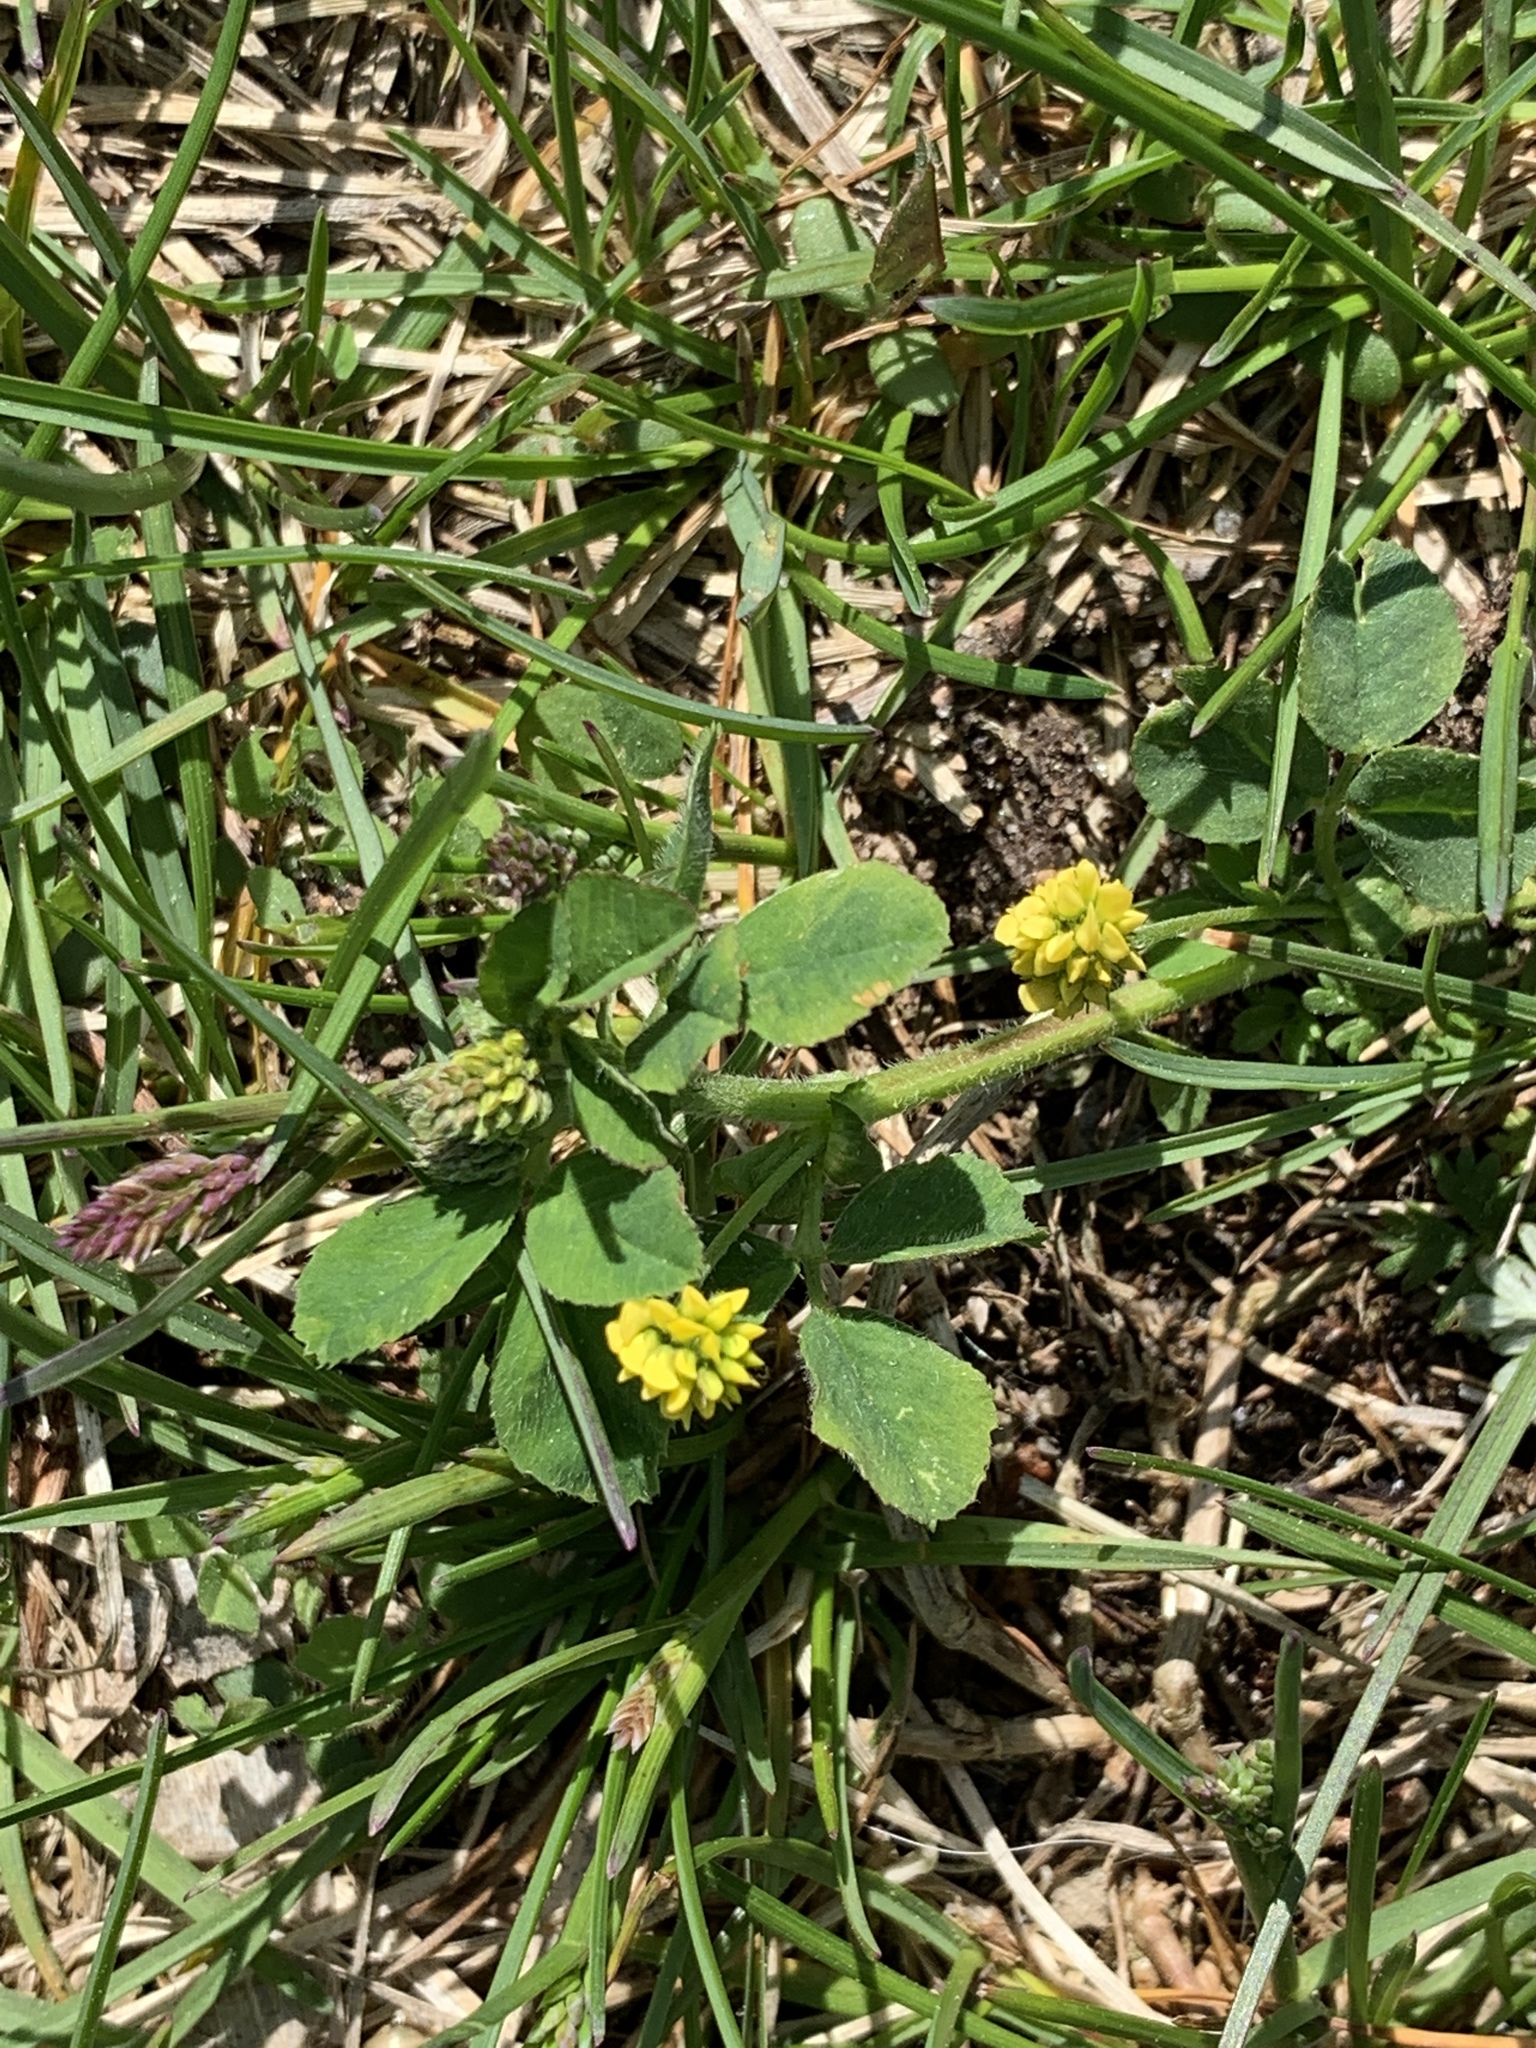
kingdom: Plantae
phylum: Tracheophyta
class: Magnoliopsida
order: Fabales
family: Fabaceae
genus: Medicago
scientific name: Medicago lupulina
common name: Black medick
